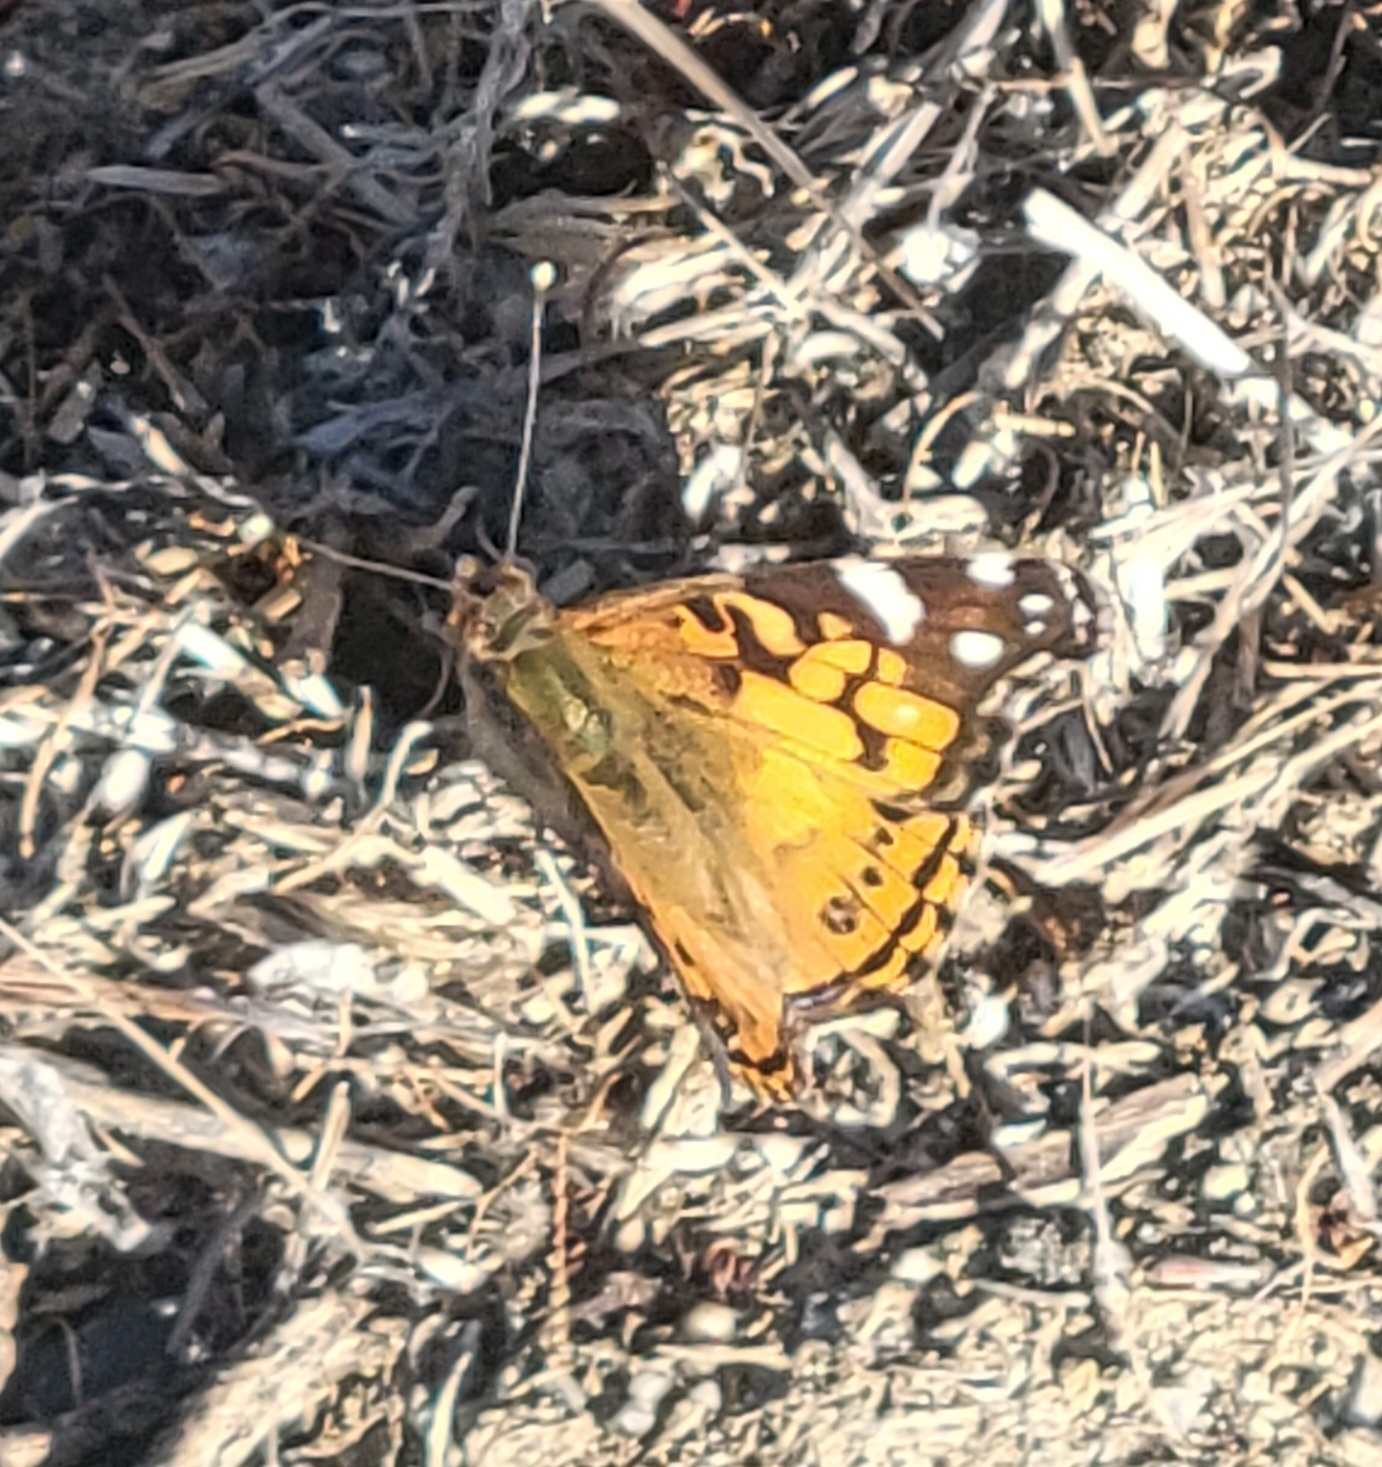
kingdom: Animalia
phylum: Arthropoda
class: Insecta
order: Lepidoptera
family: Nymphalidae
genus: Vanessa
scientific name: Vanessa virginiensis
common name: American lady
